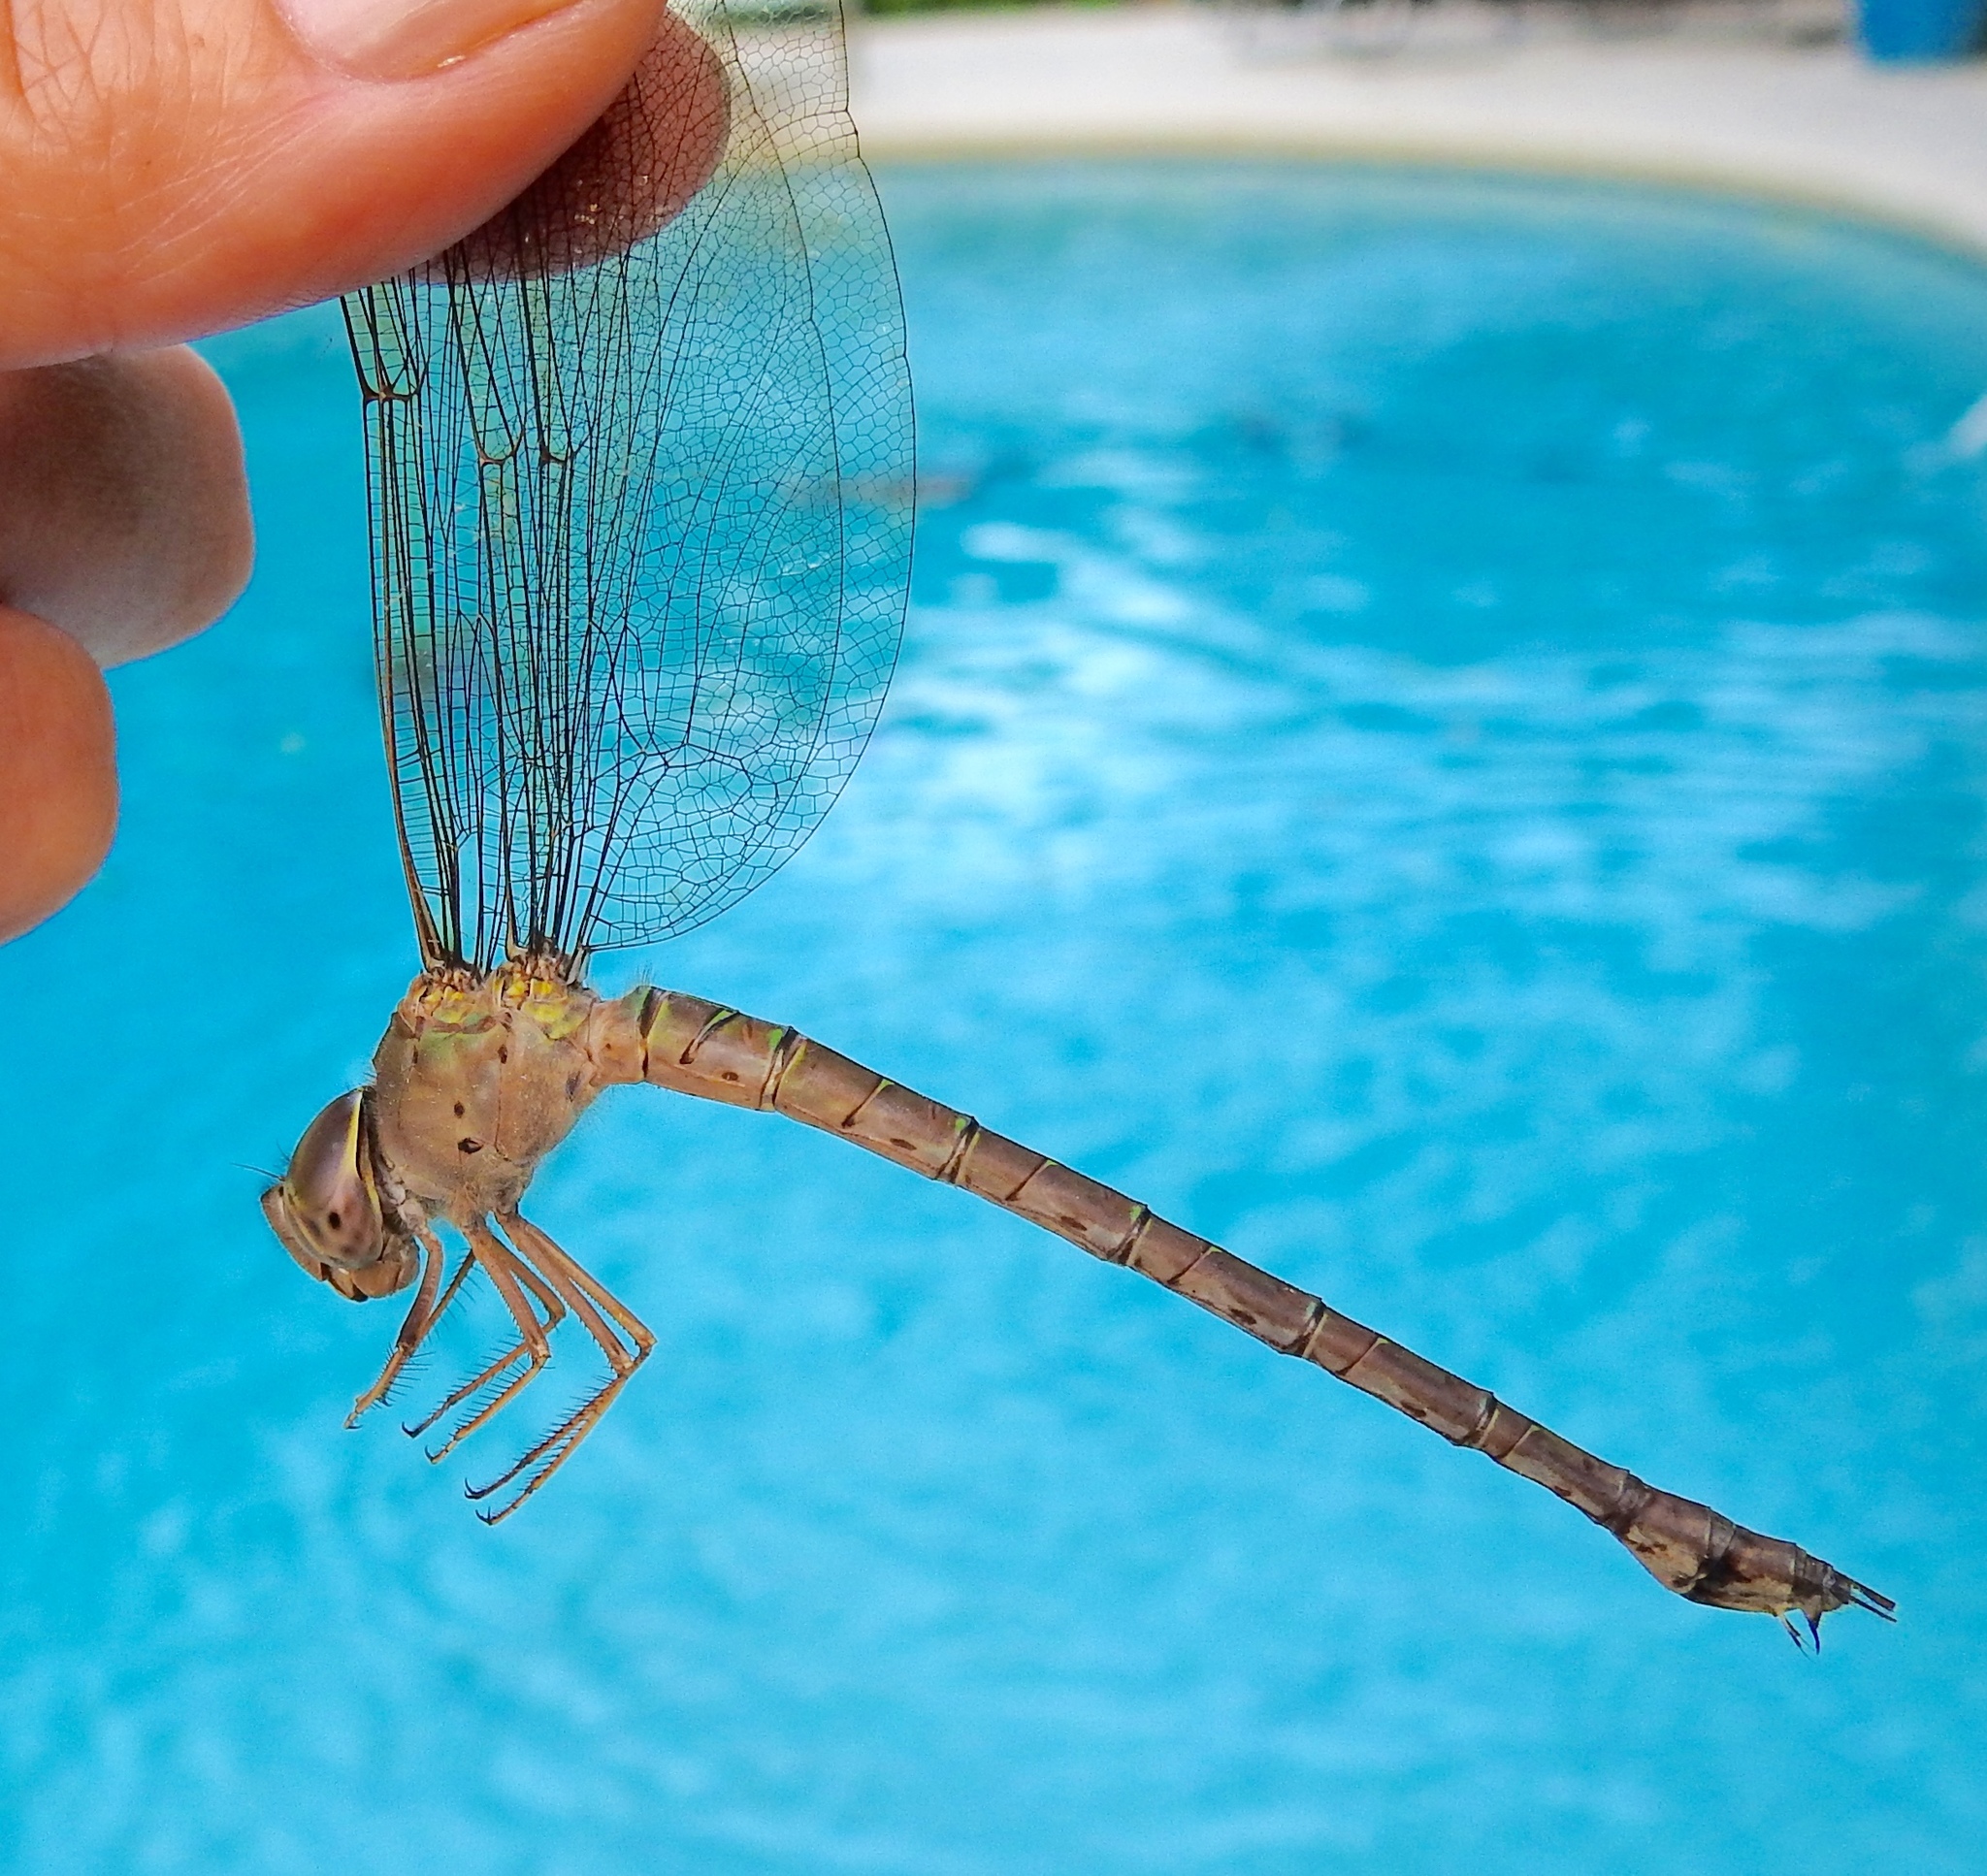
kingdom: Animalia
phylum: Arthropoda
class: Insecta
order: Odonata
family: Aeshnidae
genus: Gynacantha
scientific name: Gynacantha nervosa
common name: Twilight darner
